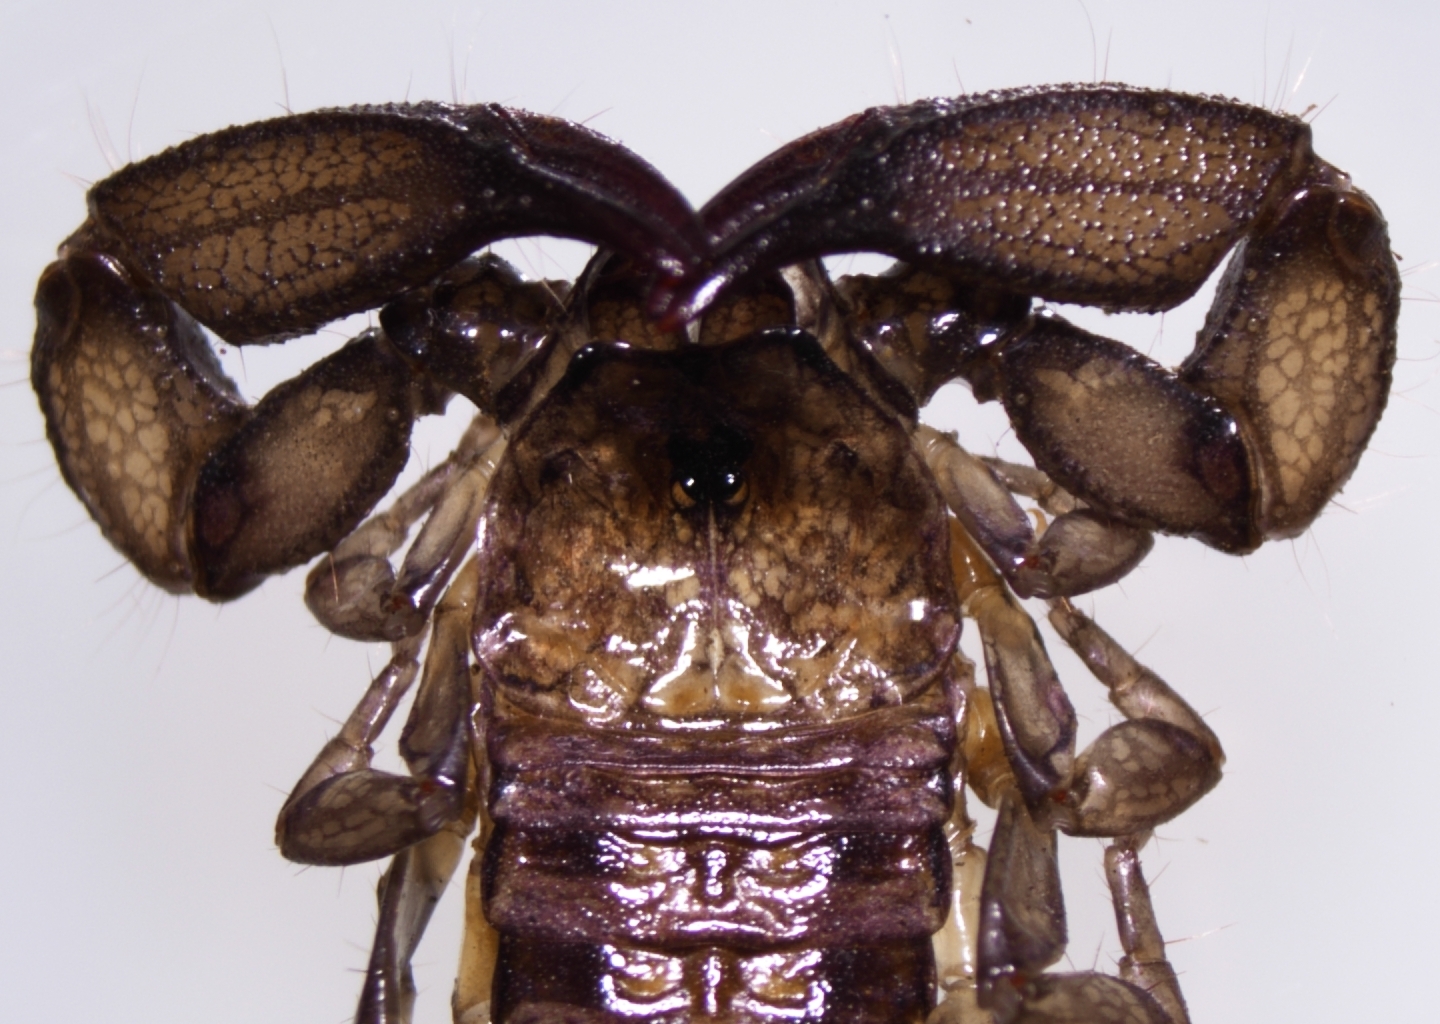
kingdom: Animalia
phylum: Arthropoda
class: Arachnida
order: Scorpiones
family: Hormuridae
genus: Liocheles
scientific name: Liocheles australasiae
